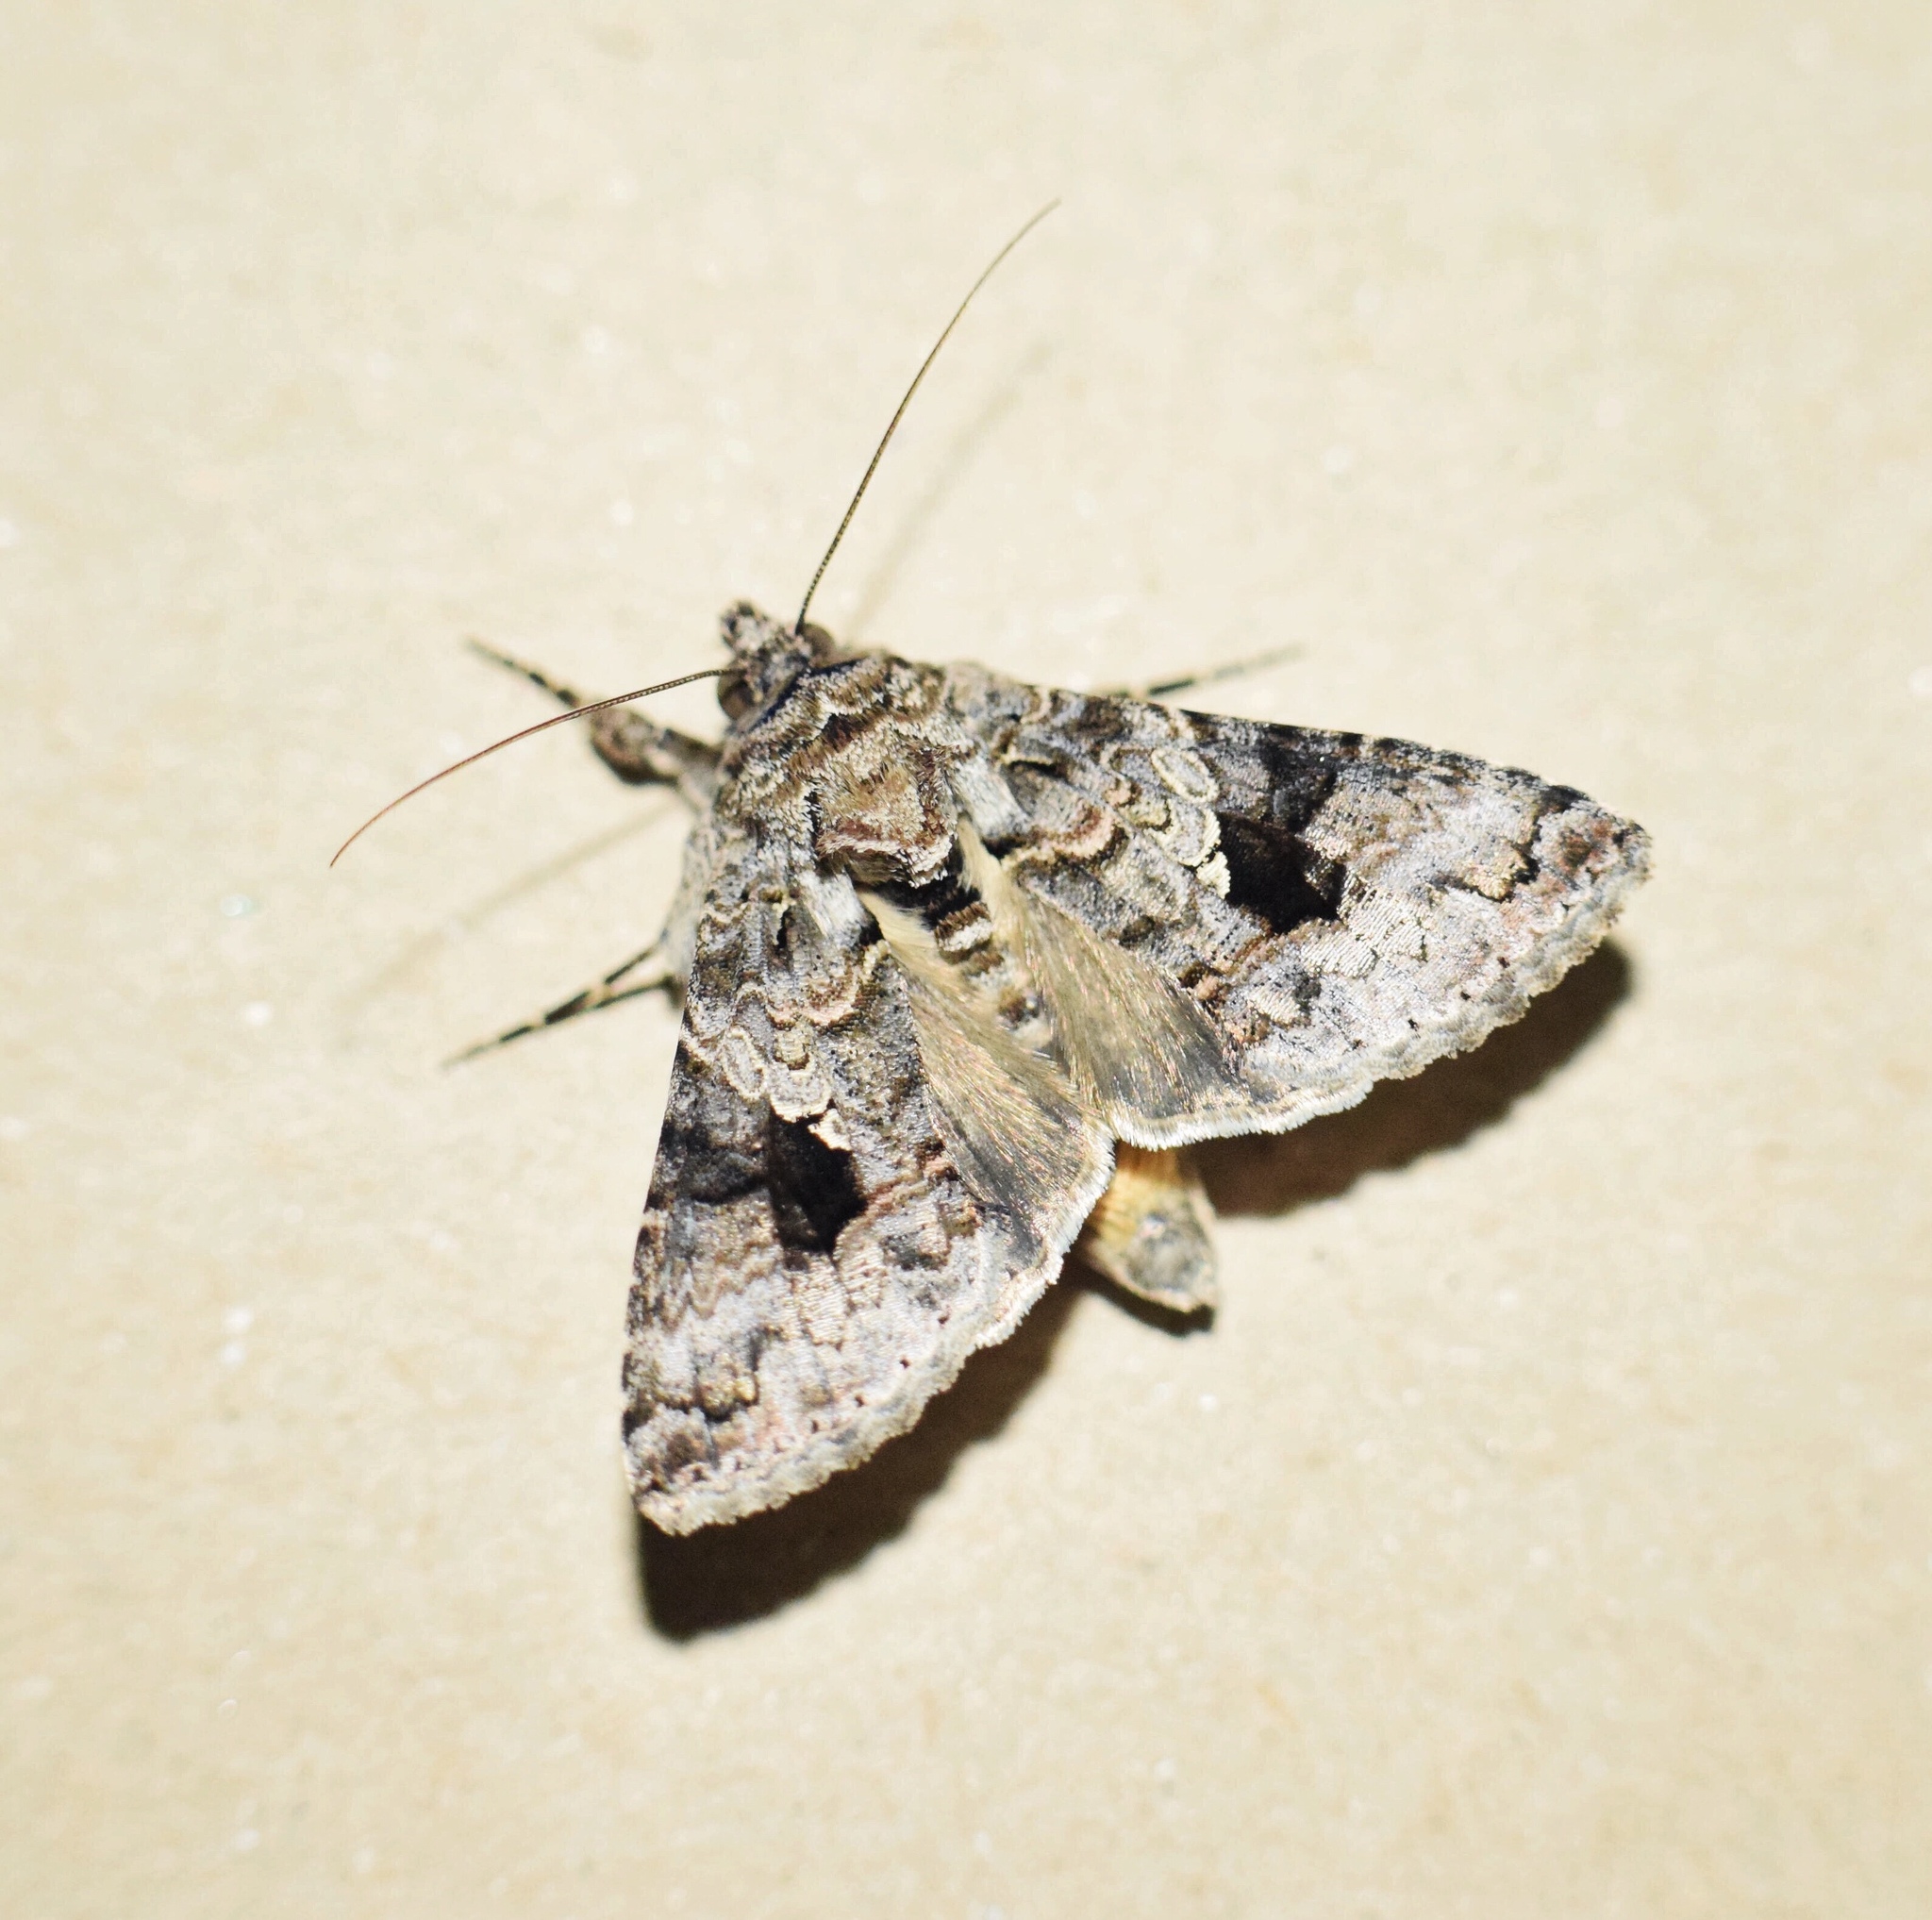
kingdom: Animalia
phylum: Arthropoda
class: Insecta
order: Lepidoptera
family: Noctuidae
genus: Ctenoplusia
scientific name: Ctenoplusia furcifera
